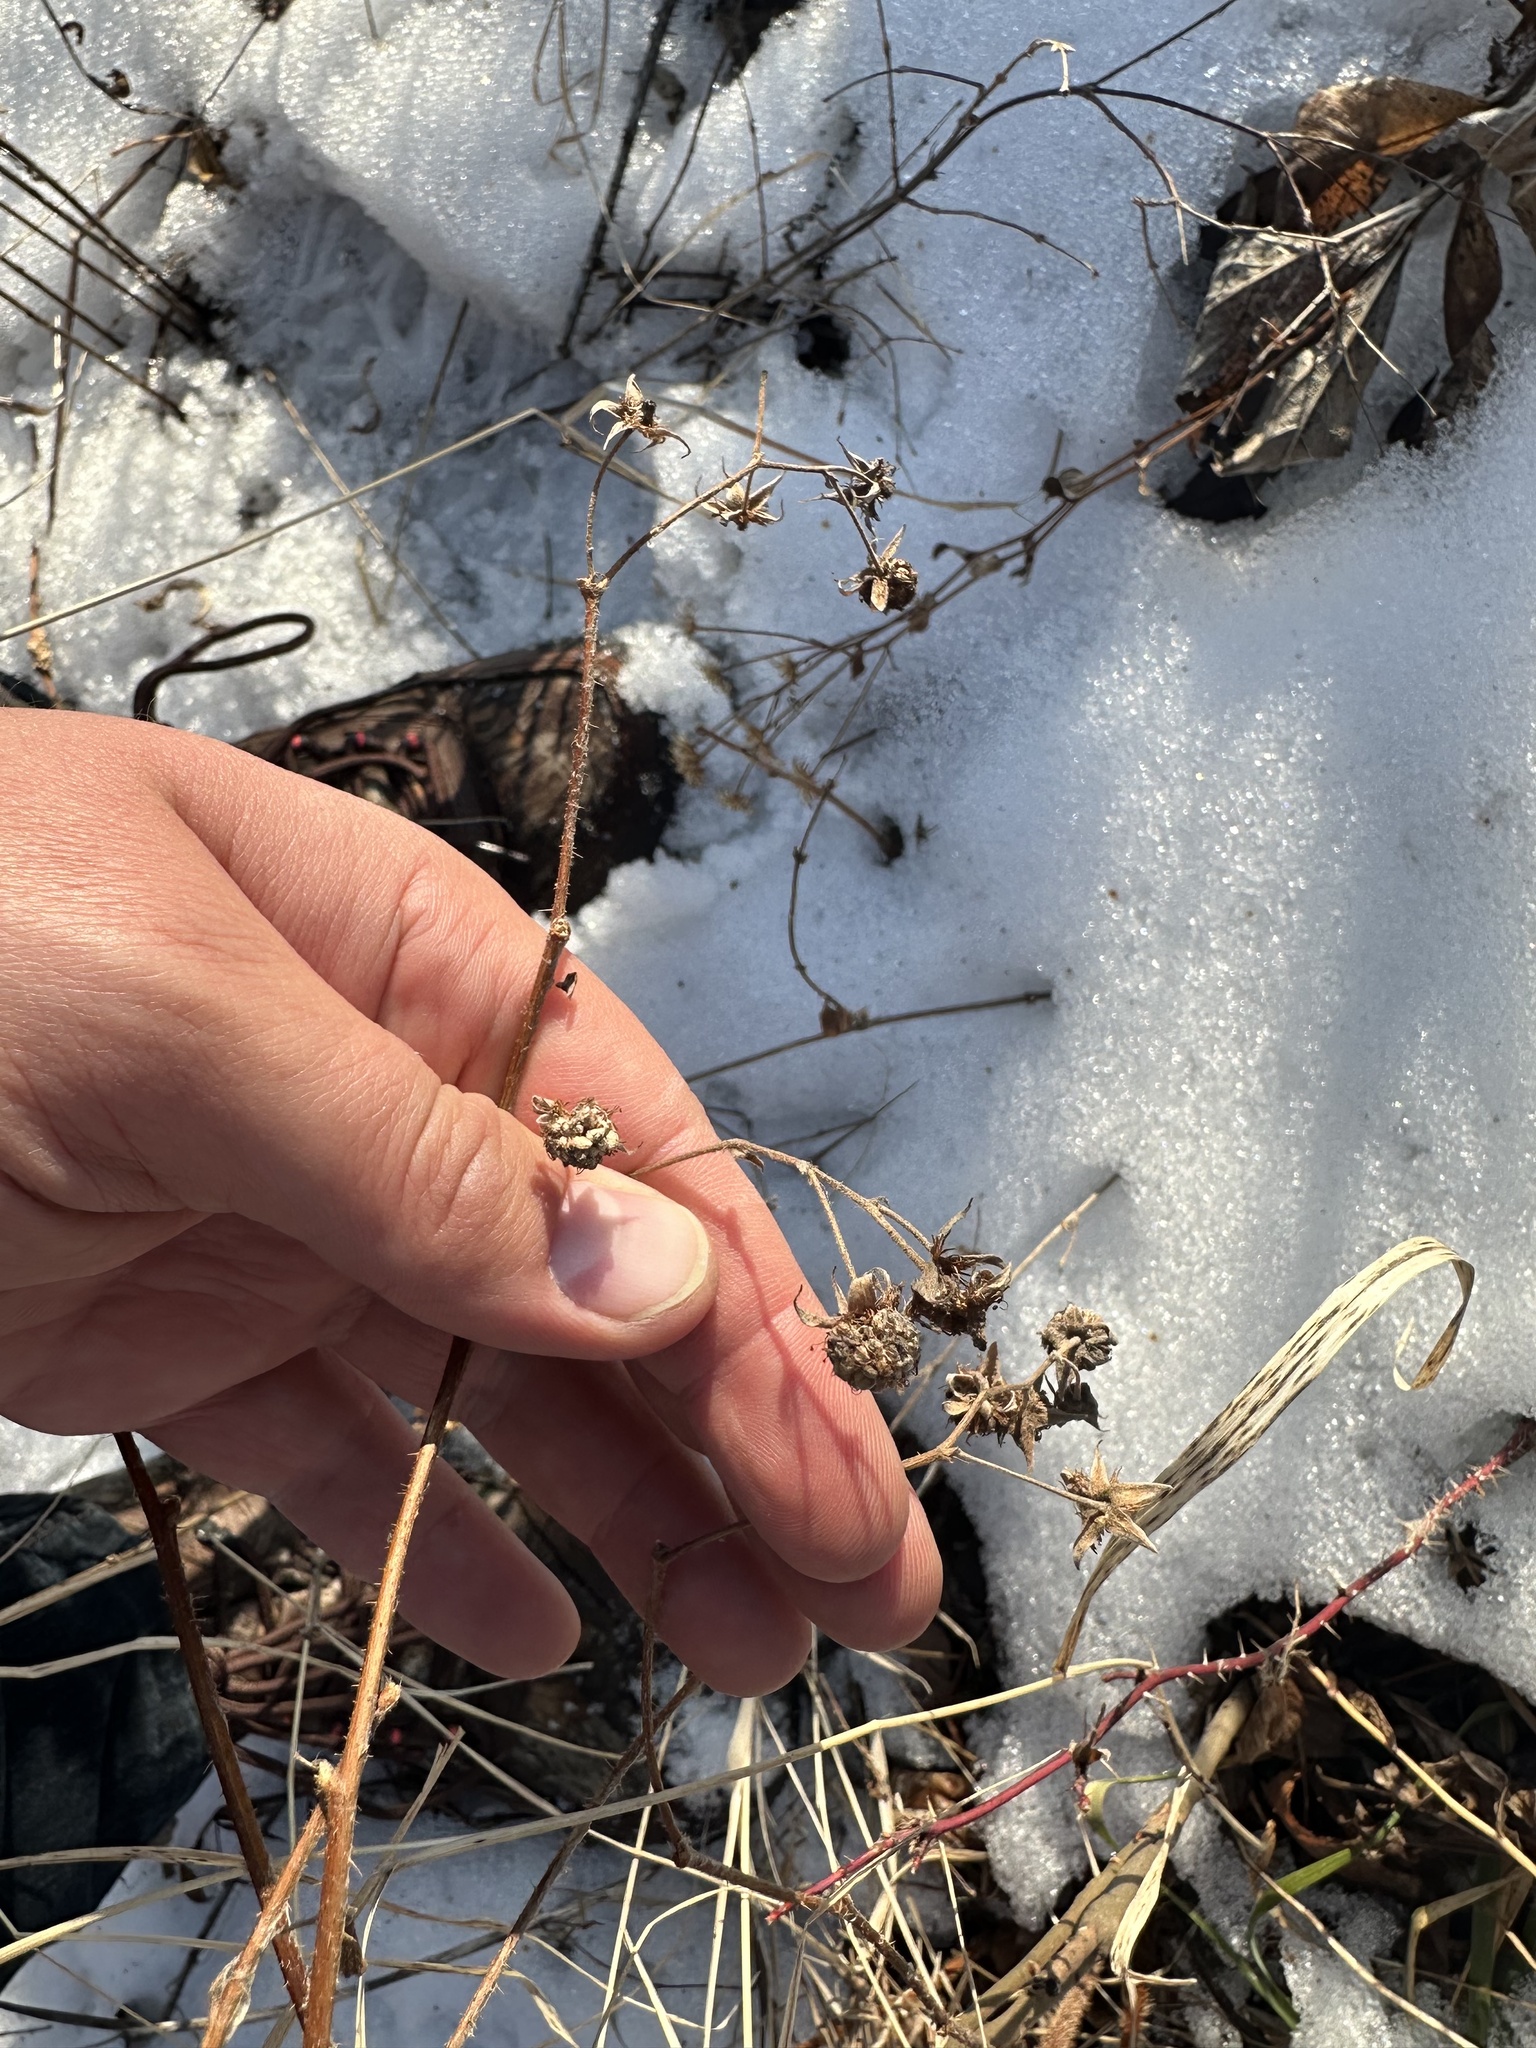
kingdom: Plantae
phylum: Tracheophyta
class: Magnoliopsida
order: Rosales
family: Rosaceae
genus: Rubus
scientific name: Rubus idaeus
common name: Raspberry
